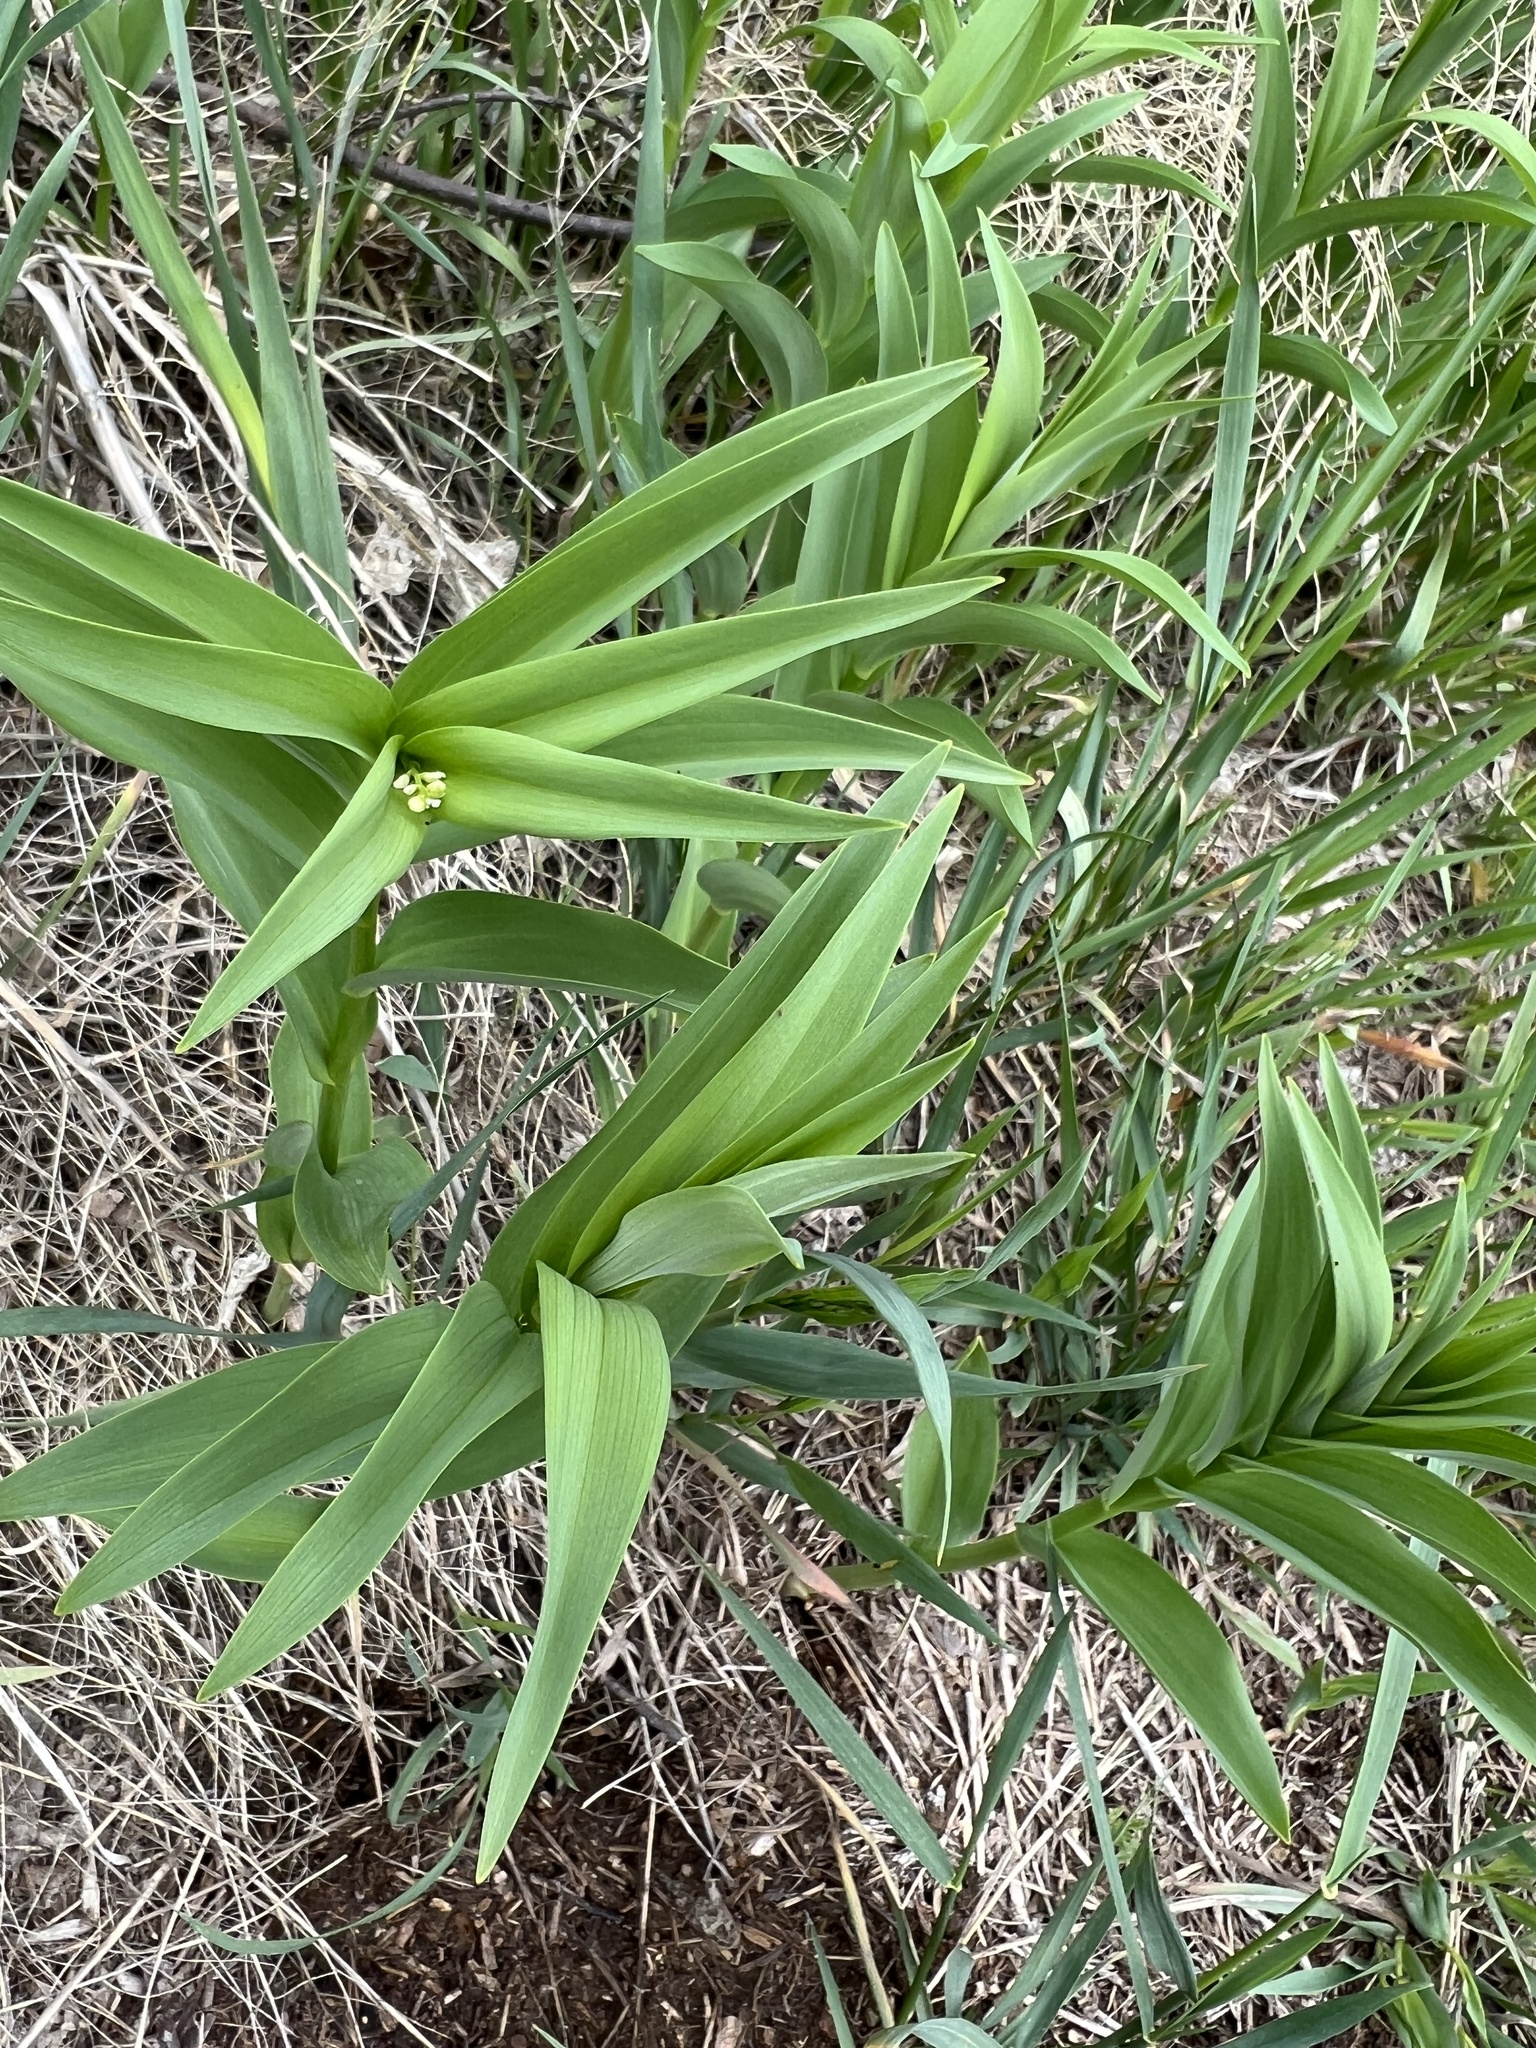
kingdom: Plantae
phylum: Tracheophyta
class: Liliopsida
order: Asparagales
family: Asparagaceae
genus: Maianthemum
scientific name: Maianthemum stellatum
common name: Little false solomon's seal
